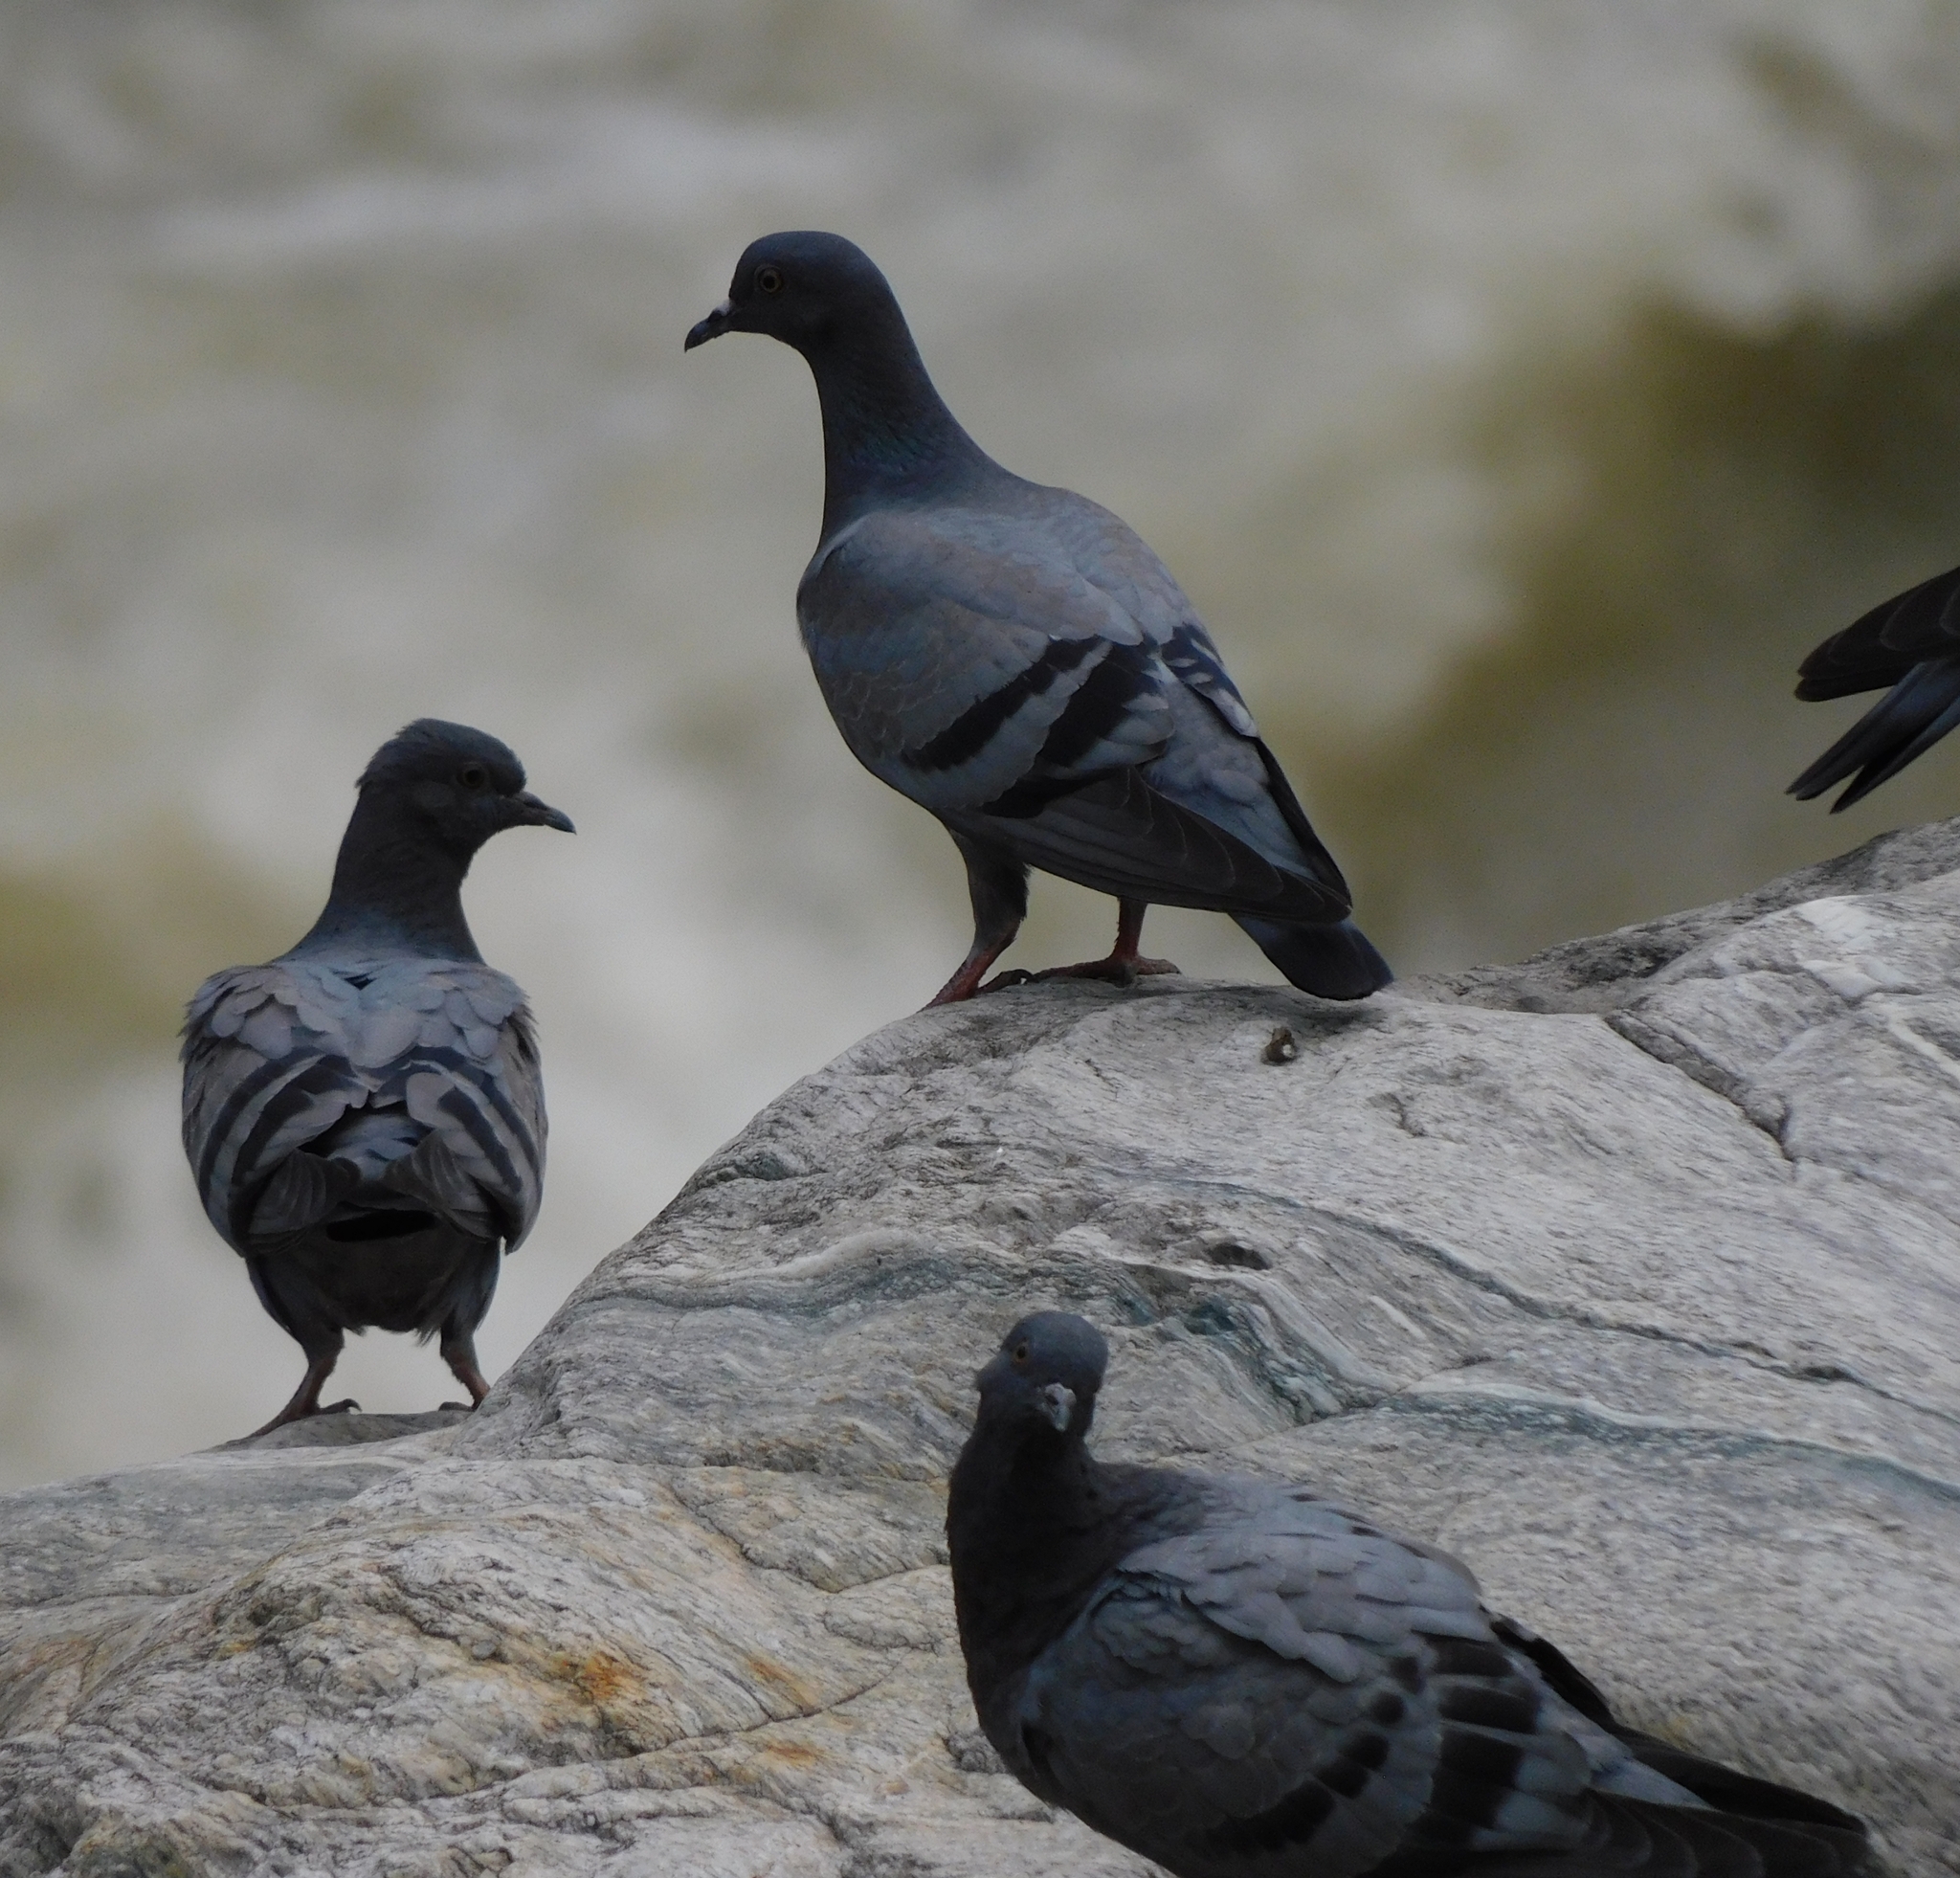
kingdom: Animalia
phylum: Chordata
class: Aves
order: Columbiformes
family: Columbidae
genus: Columba
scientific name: Columba livia
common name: Rock pigeon
